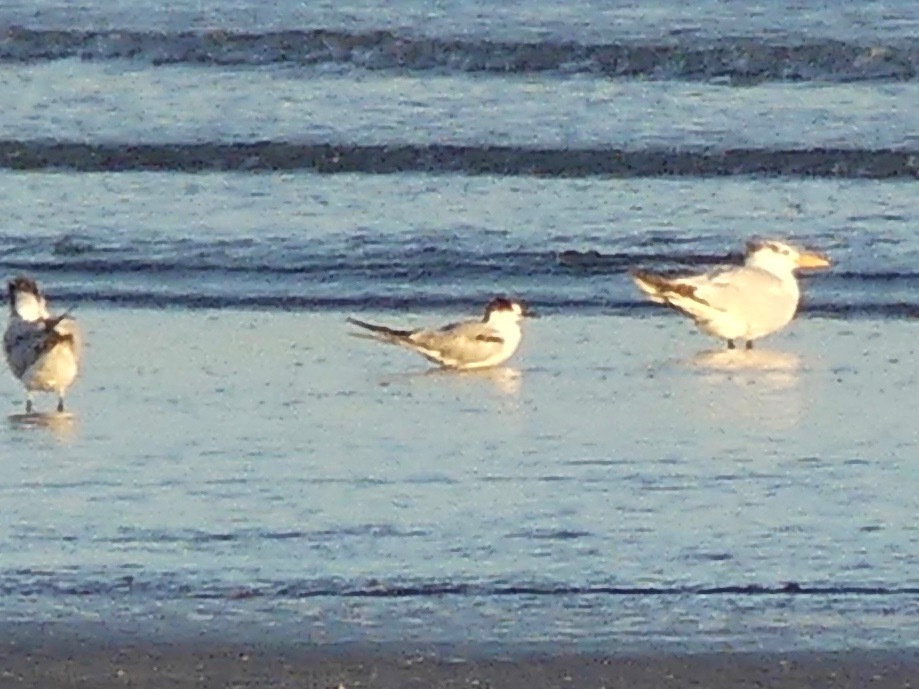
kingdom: Animalia
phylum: Chordata
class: Aves
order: Charadriiformes
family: Laridae
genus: Sterna
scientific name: Sterna hirundo
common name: Common tern
